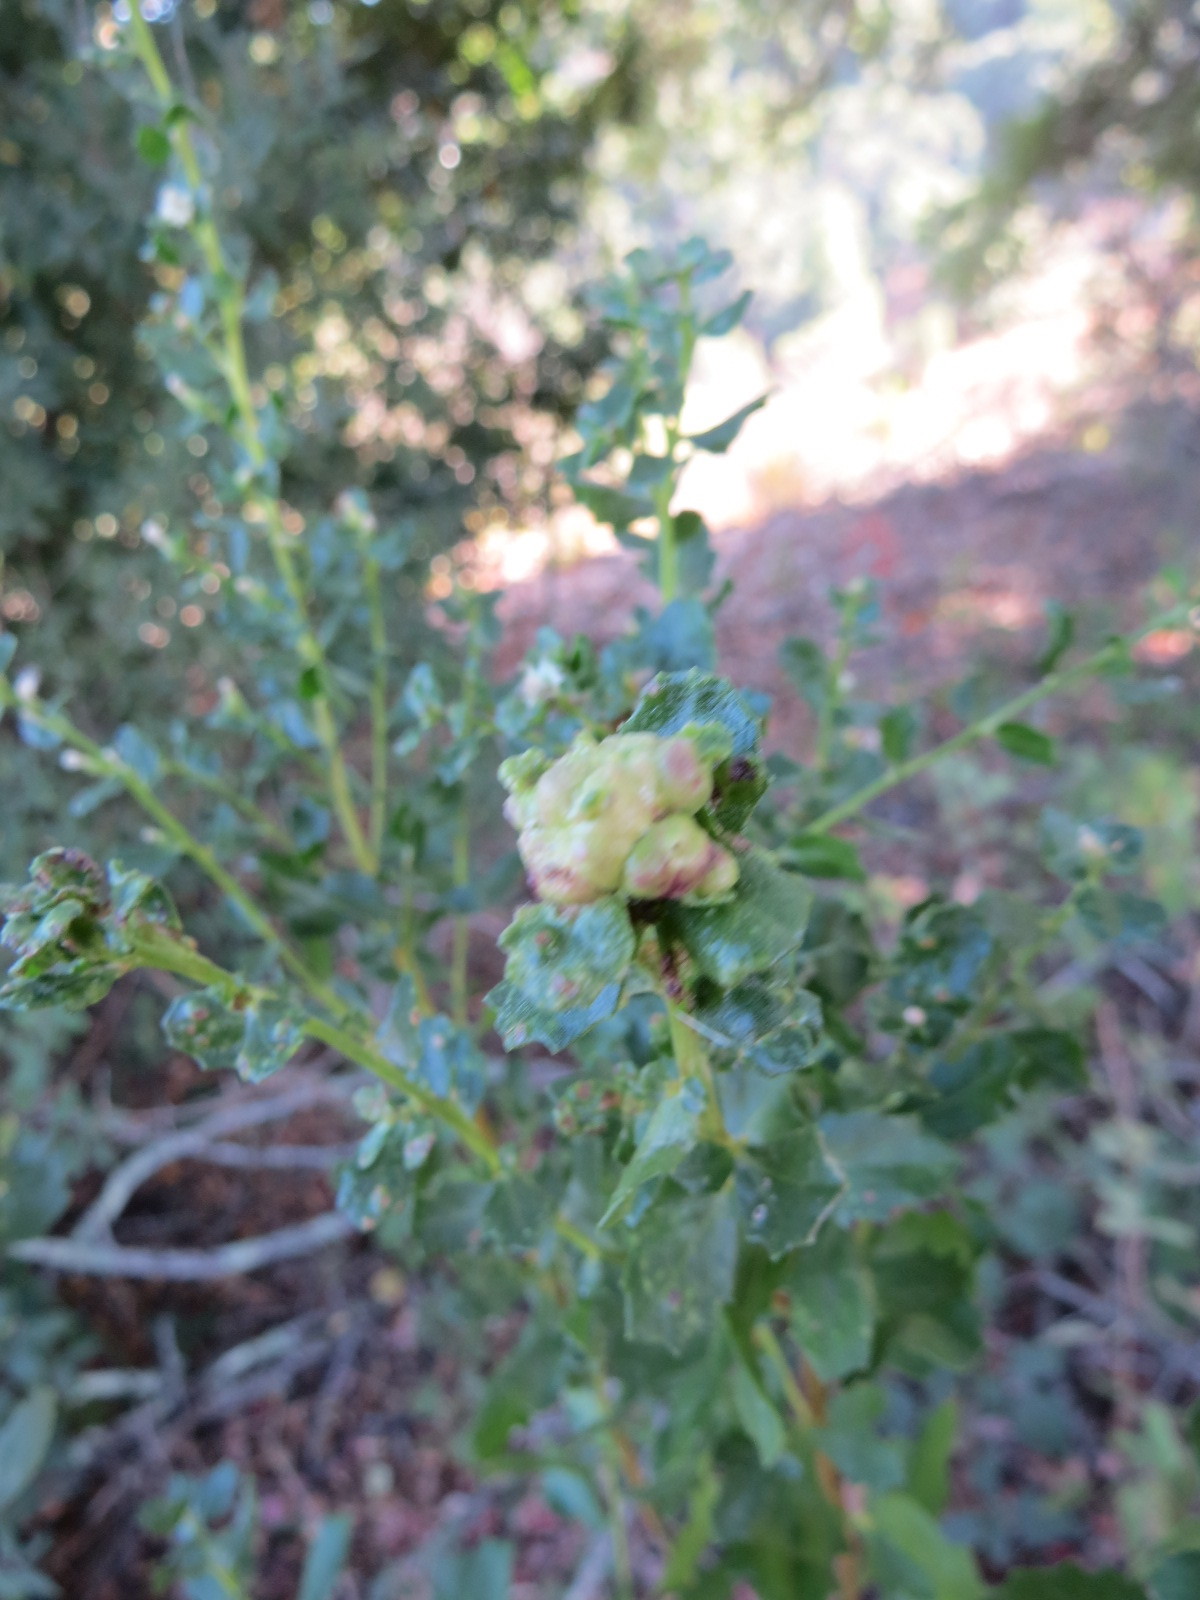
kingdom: Animalia
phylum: Arthropoda
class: Insecta
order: Diptera
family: Cecidomyiidae
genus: Rhopalomyia
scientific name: Rhopalomyia californica
